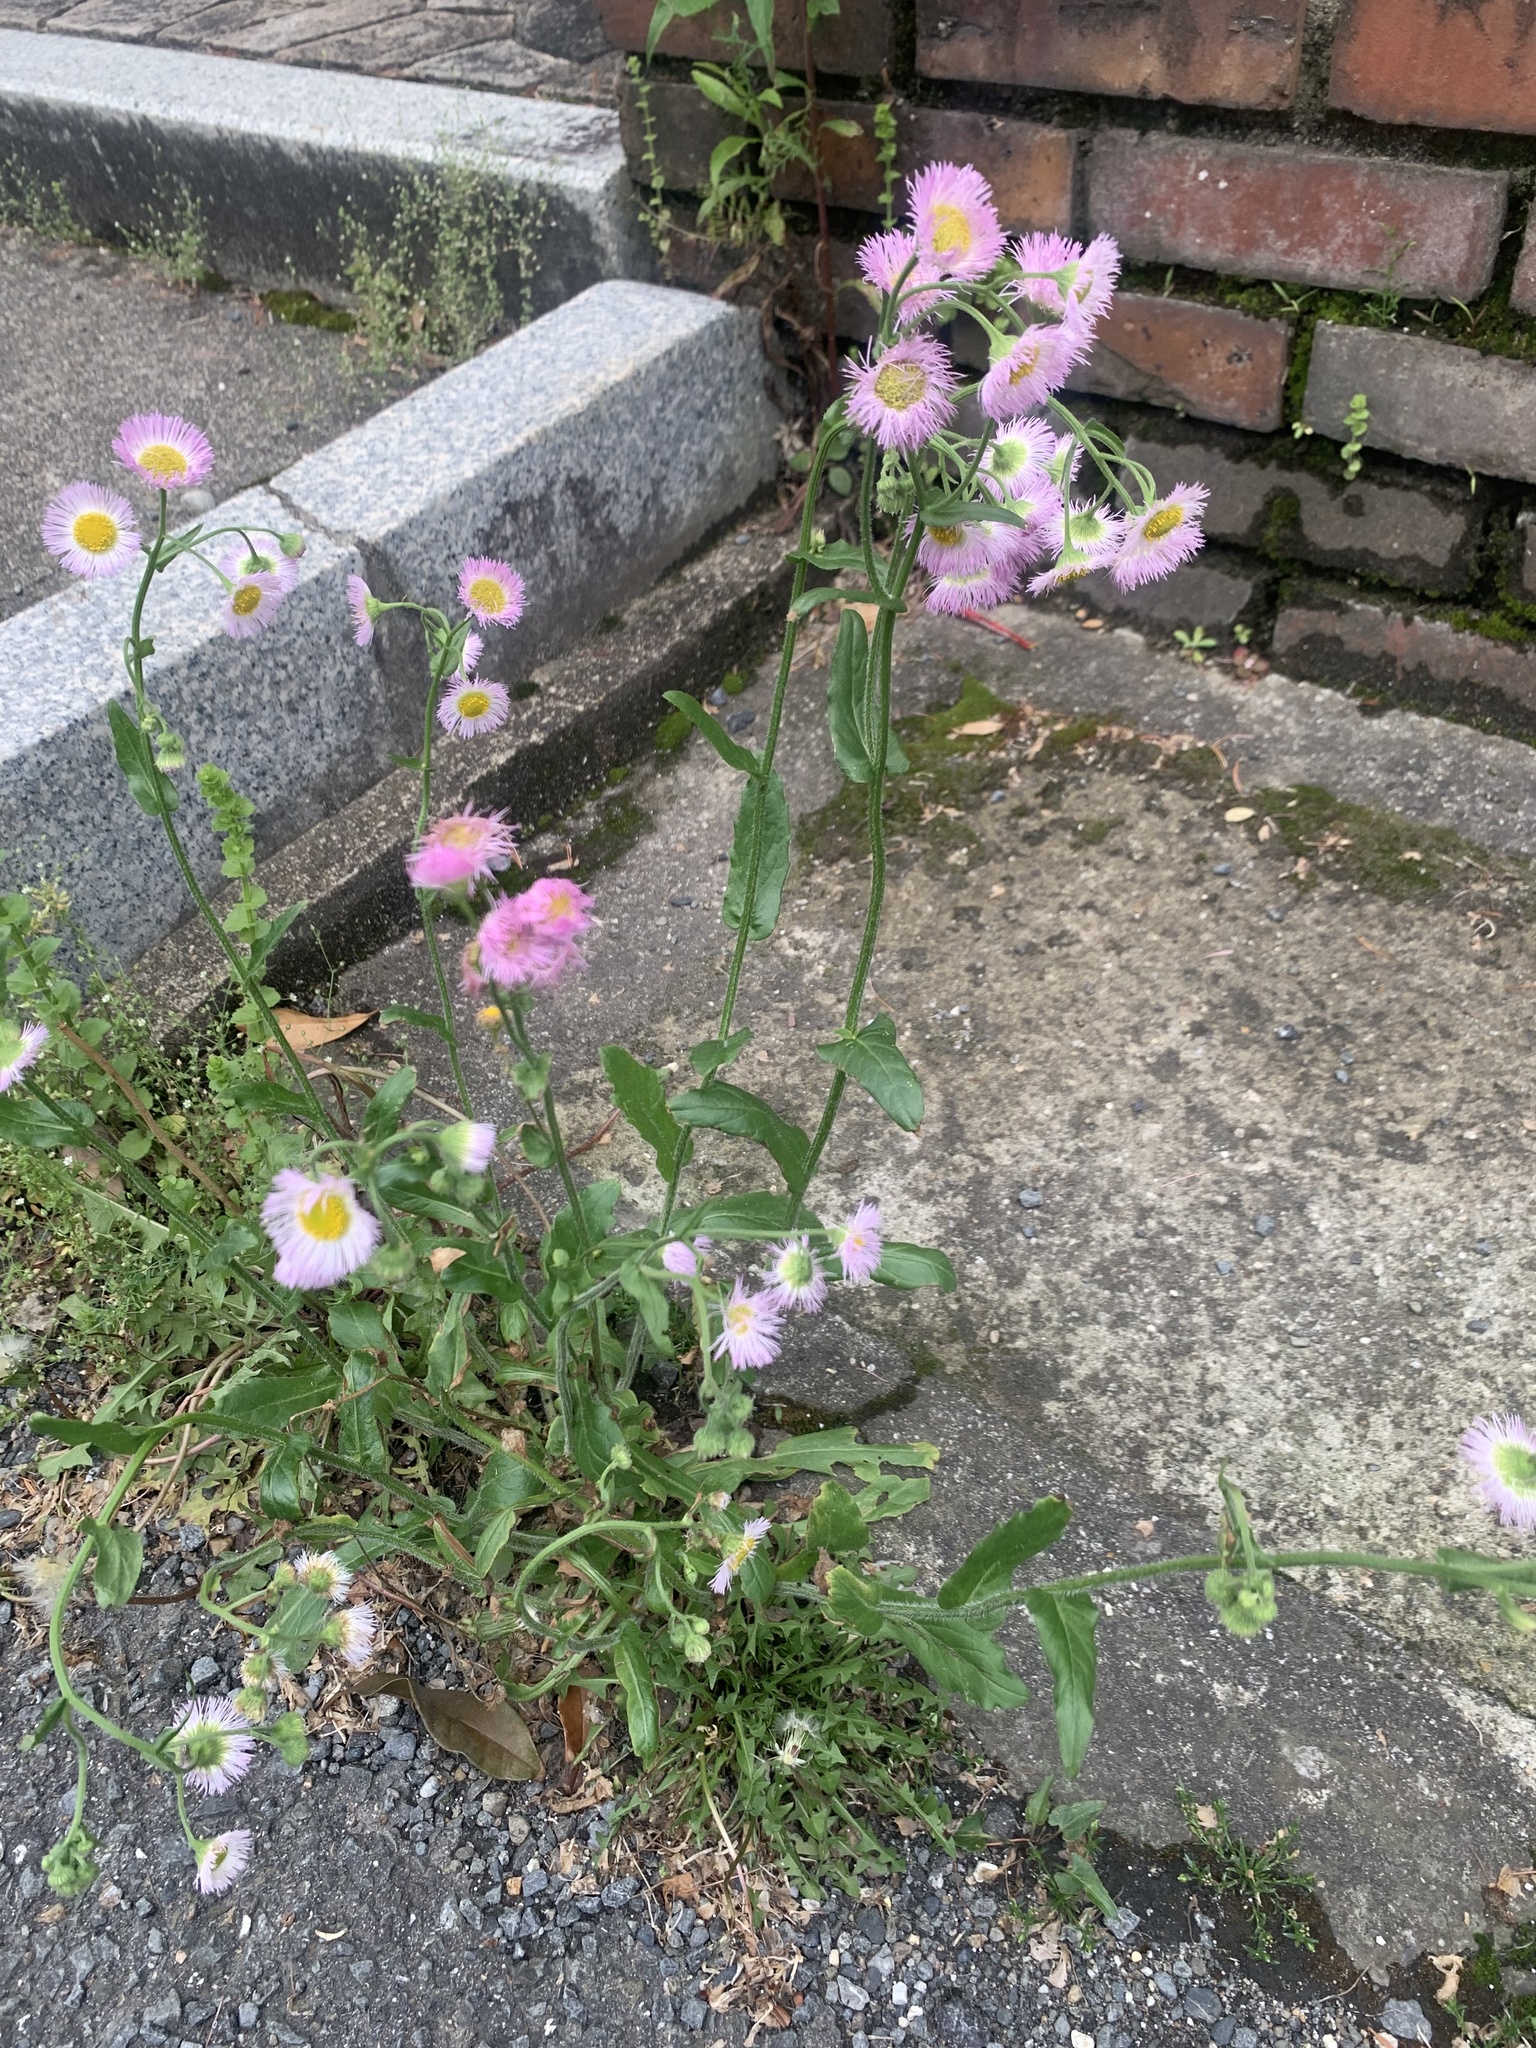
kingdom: Plantae
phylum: Tracheophyta
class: Magnoliopsida
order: Asterales
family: Asteraceae
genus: Erigeron
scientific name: Erigeron philadelphicus
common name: Robin's-plantain
